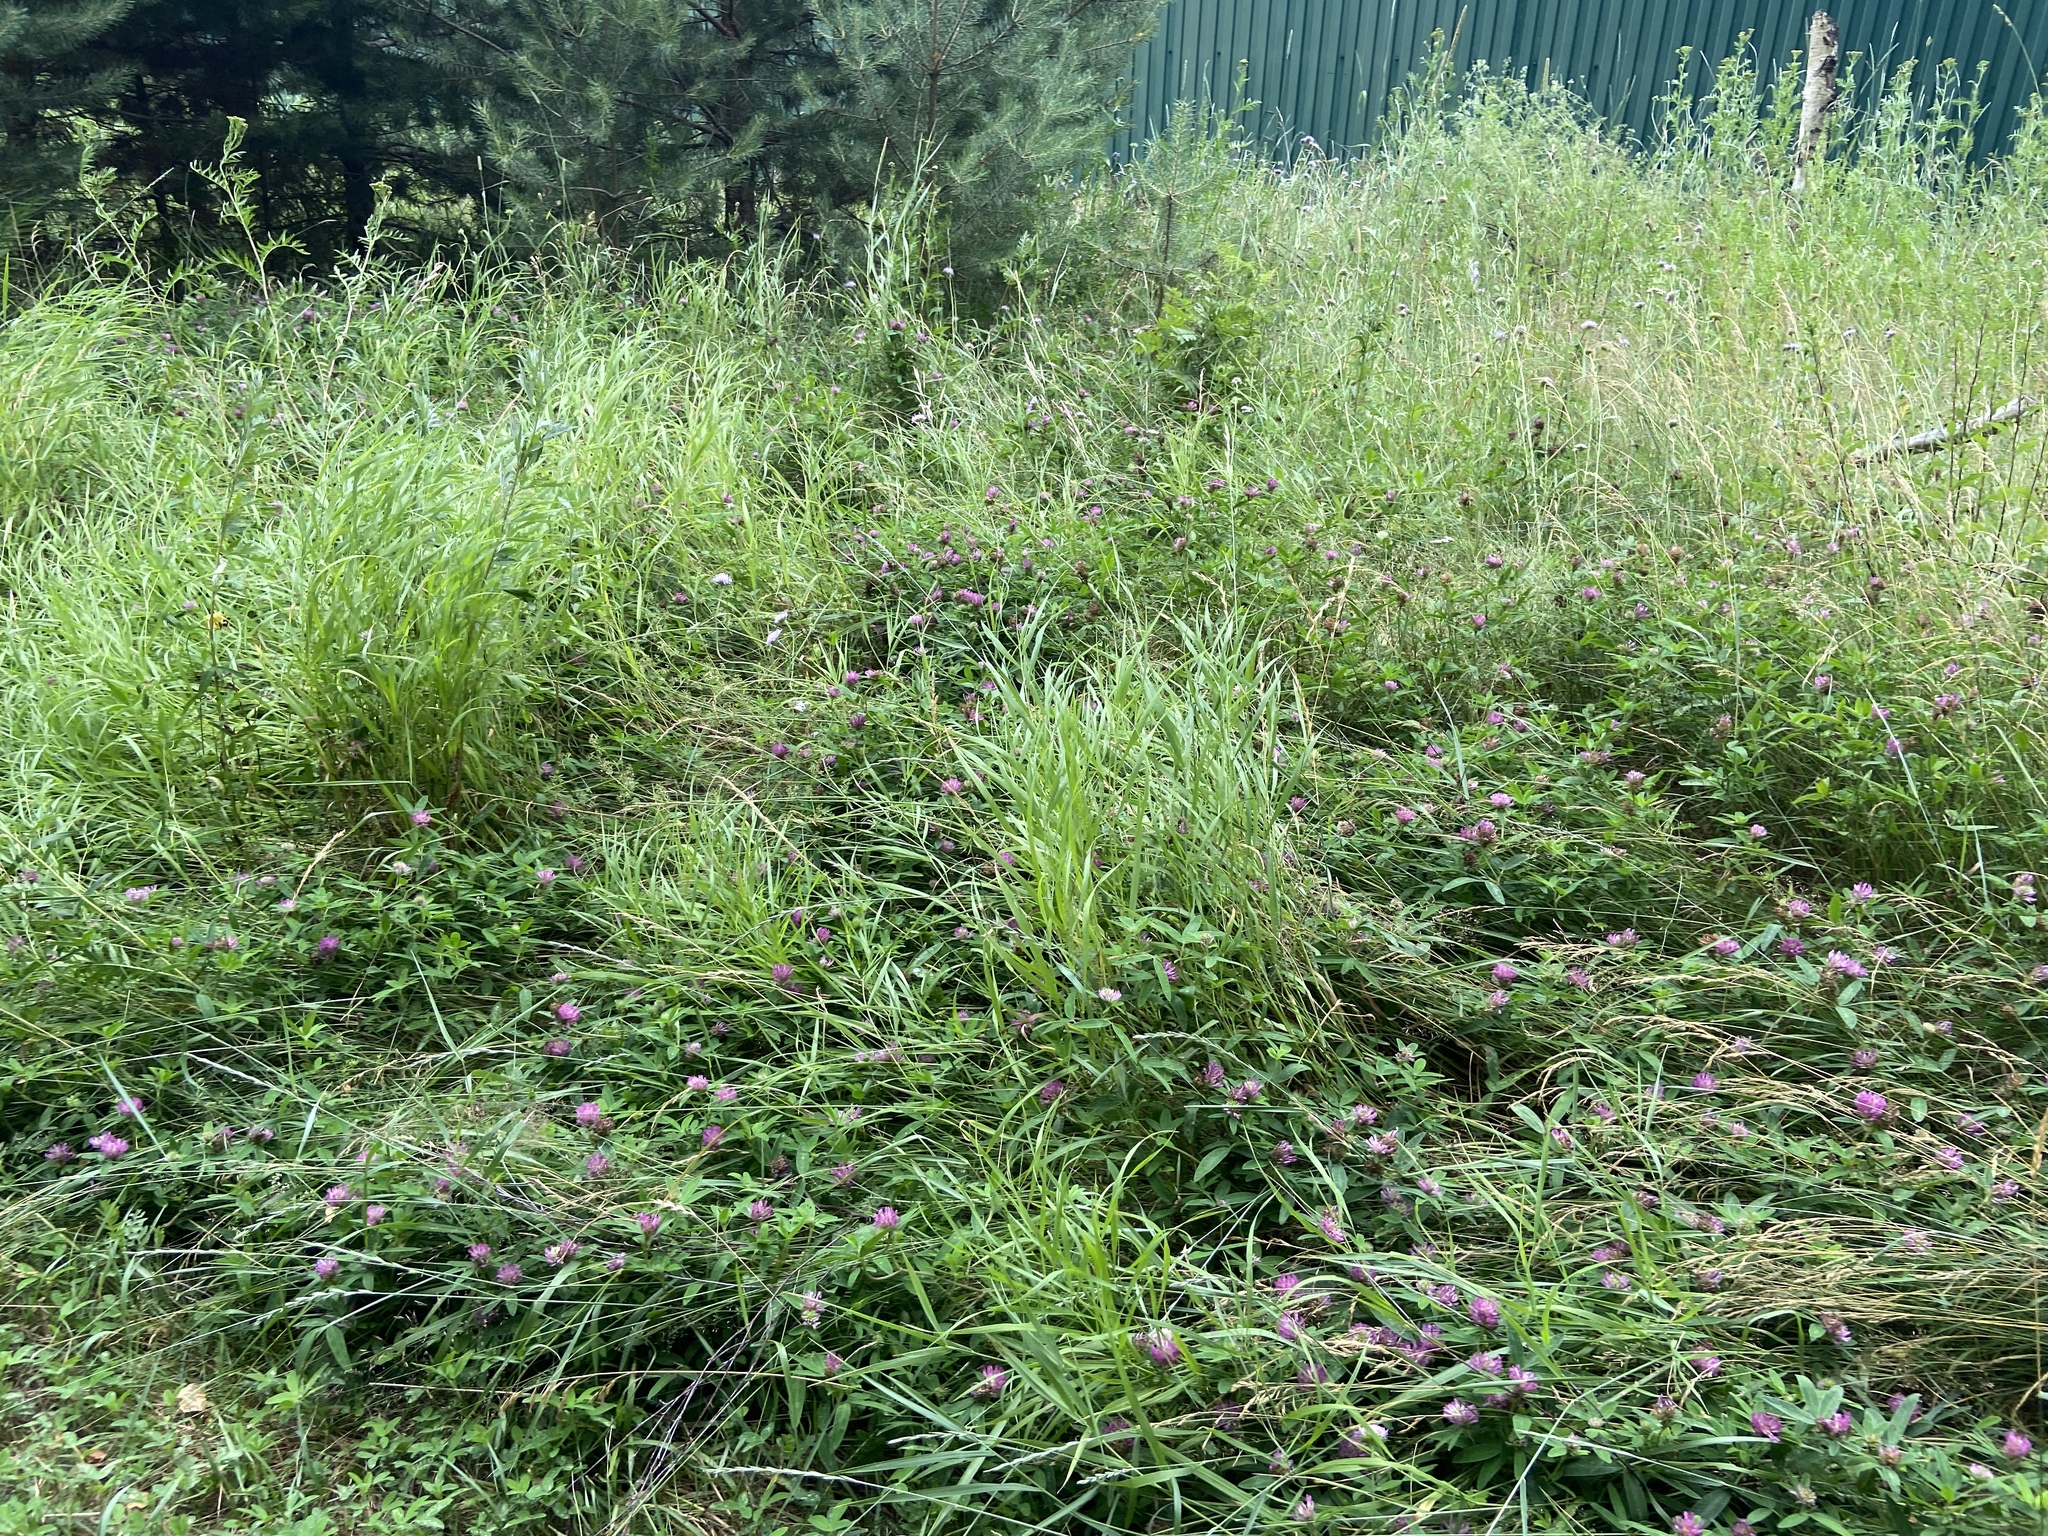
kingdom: Plantae
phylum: Tracheophyta
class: Magnoliopsida
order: Fabales
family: Fabaceae
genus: Trifolium
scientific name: Trifolium medium
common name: Zigzag clover
